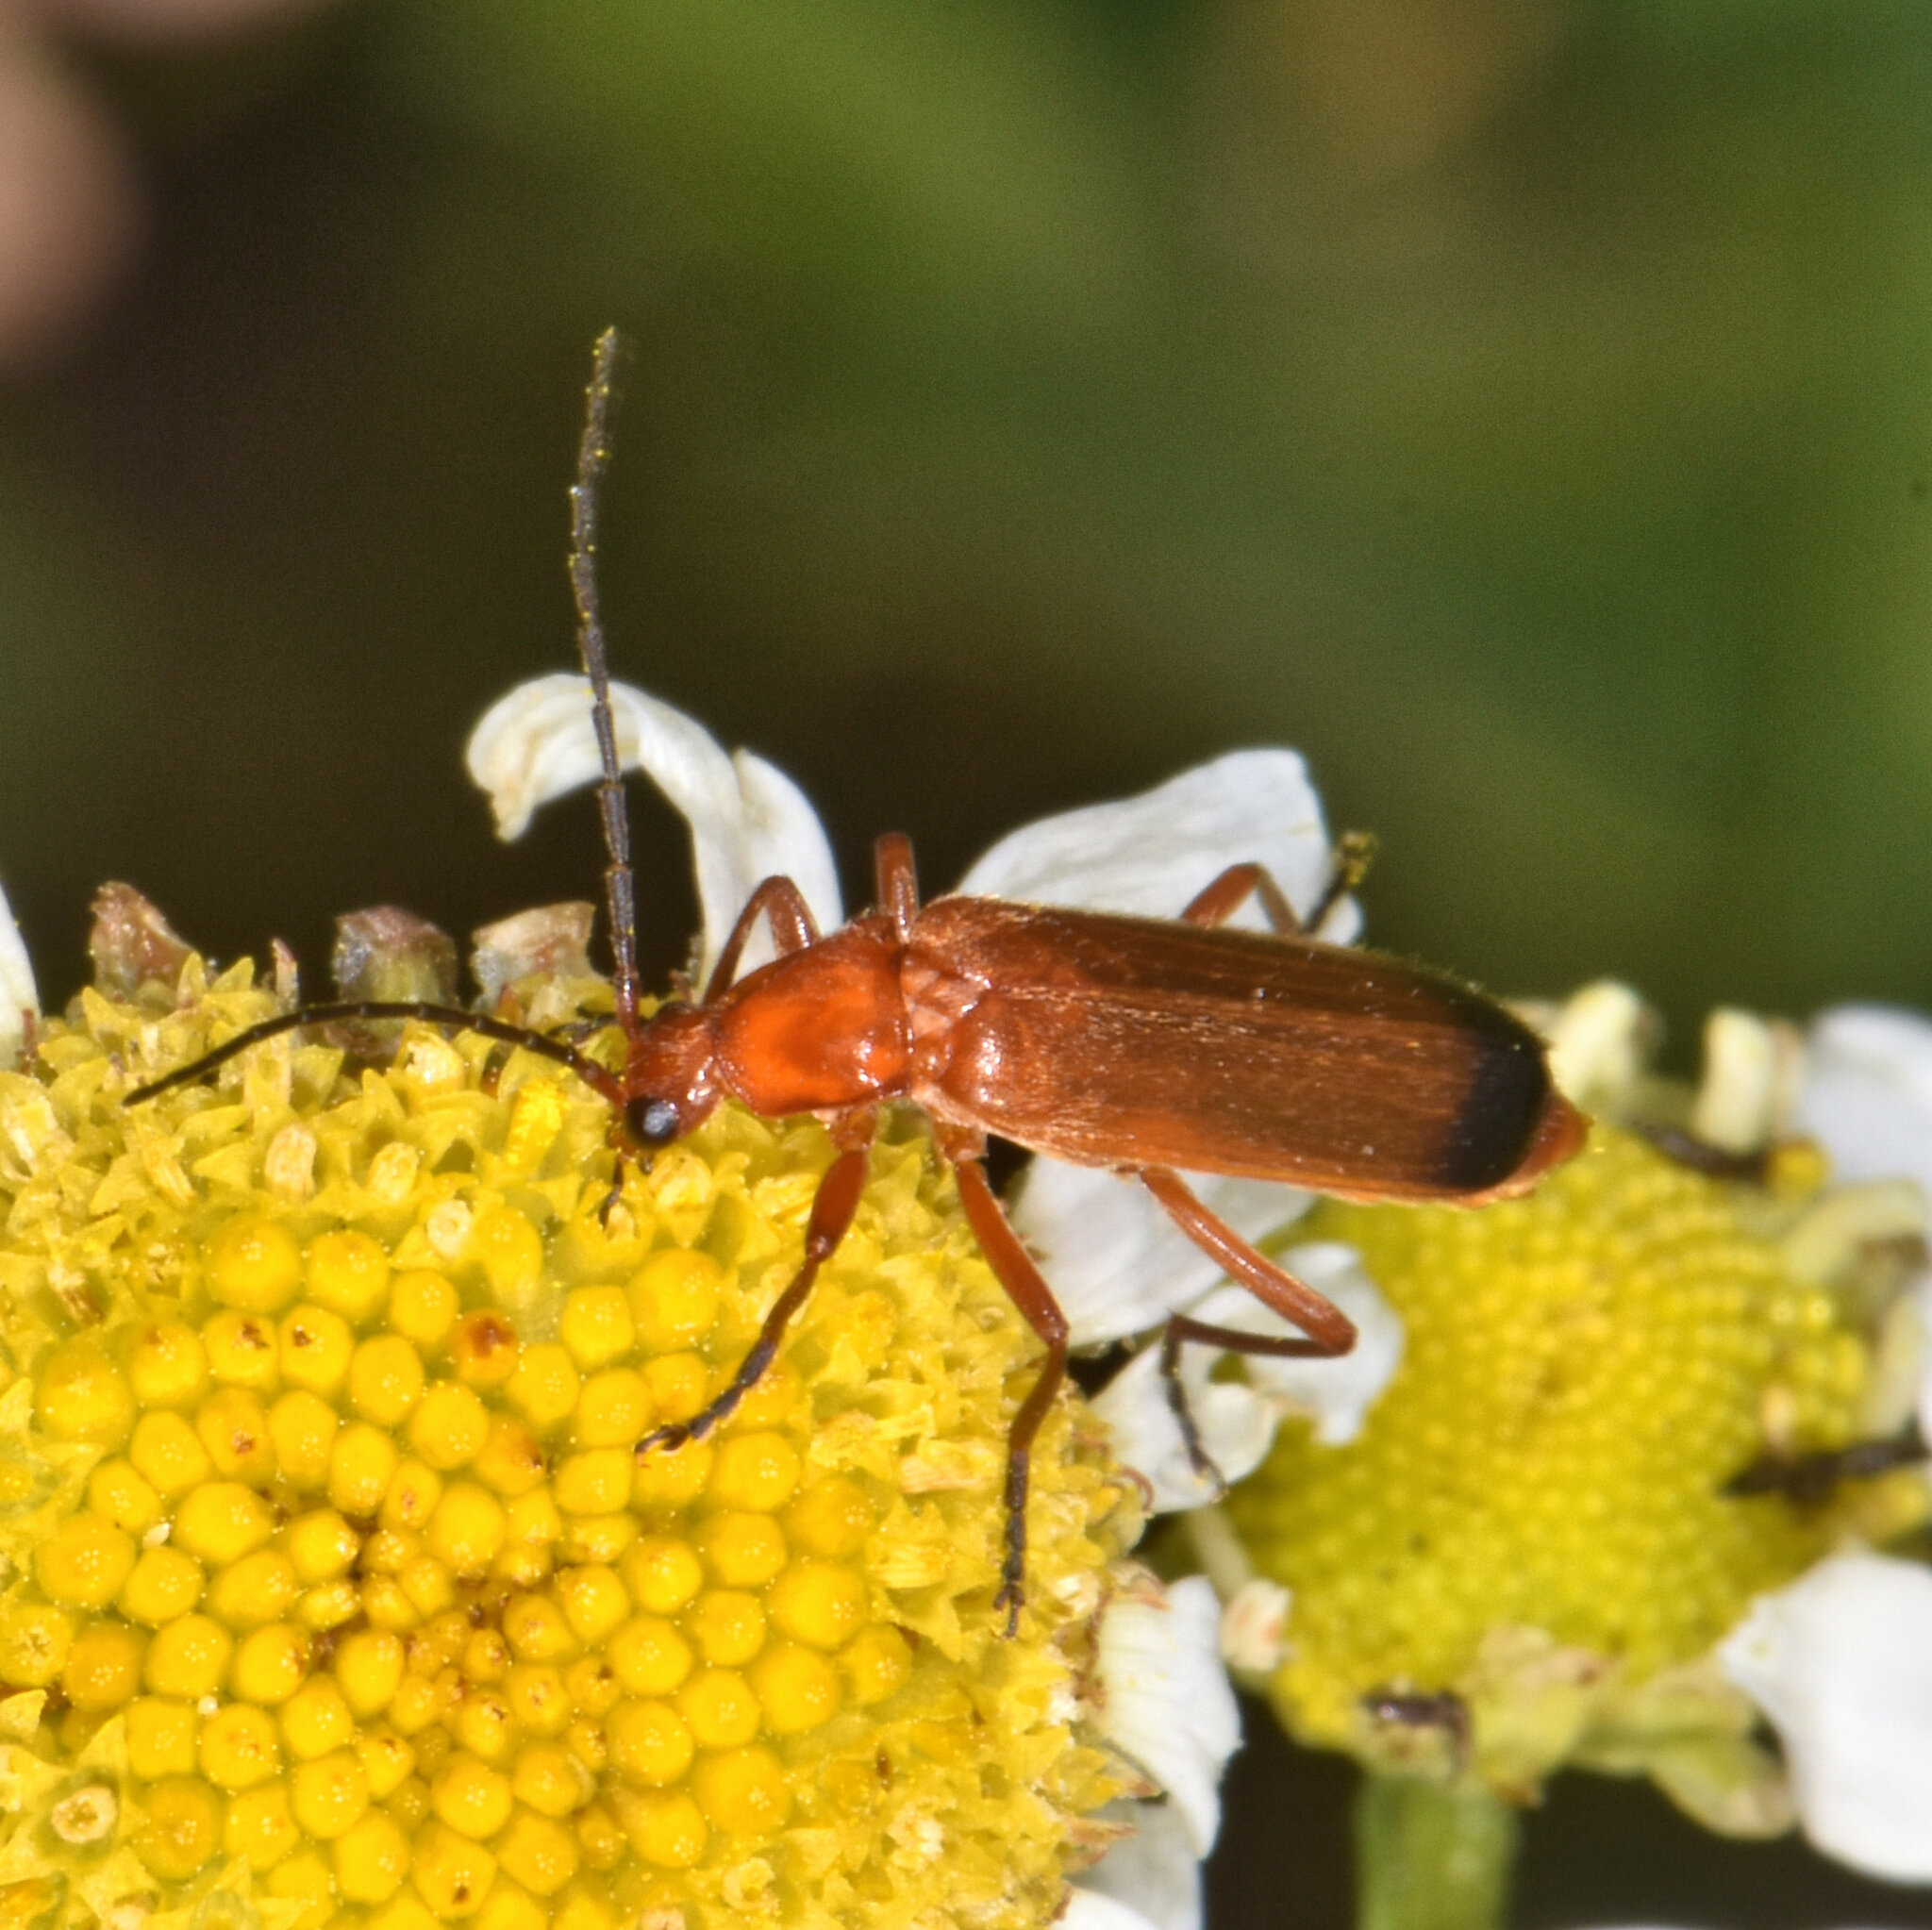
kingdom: Animalia
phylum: Arthropoda
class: Insecta
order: Coleoptera
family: Cantharidae
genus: Rhagonycha
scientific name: Rhagonycha fulva
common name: Common red soldier beetle
